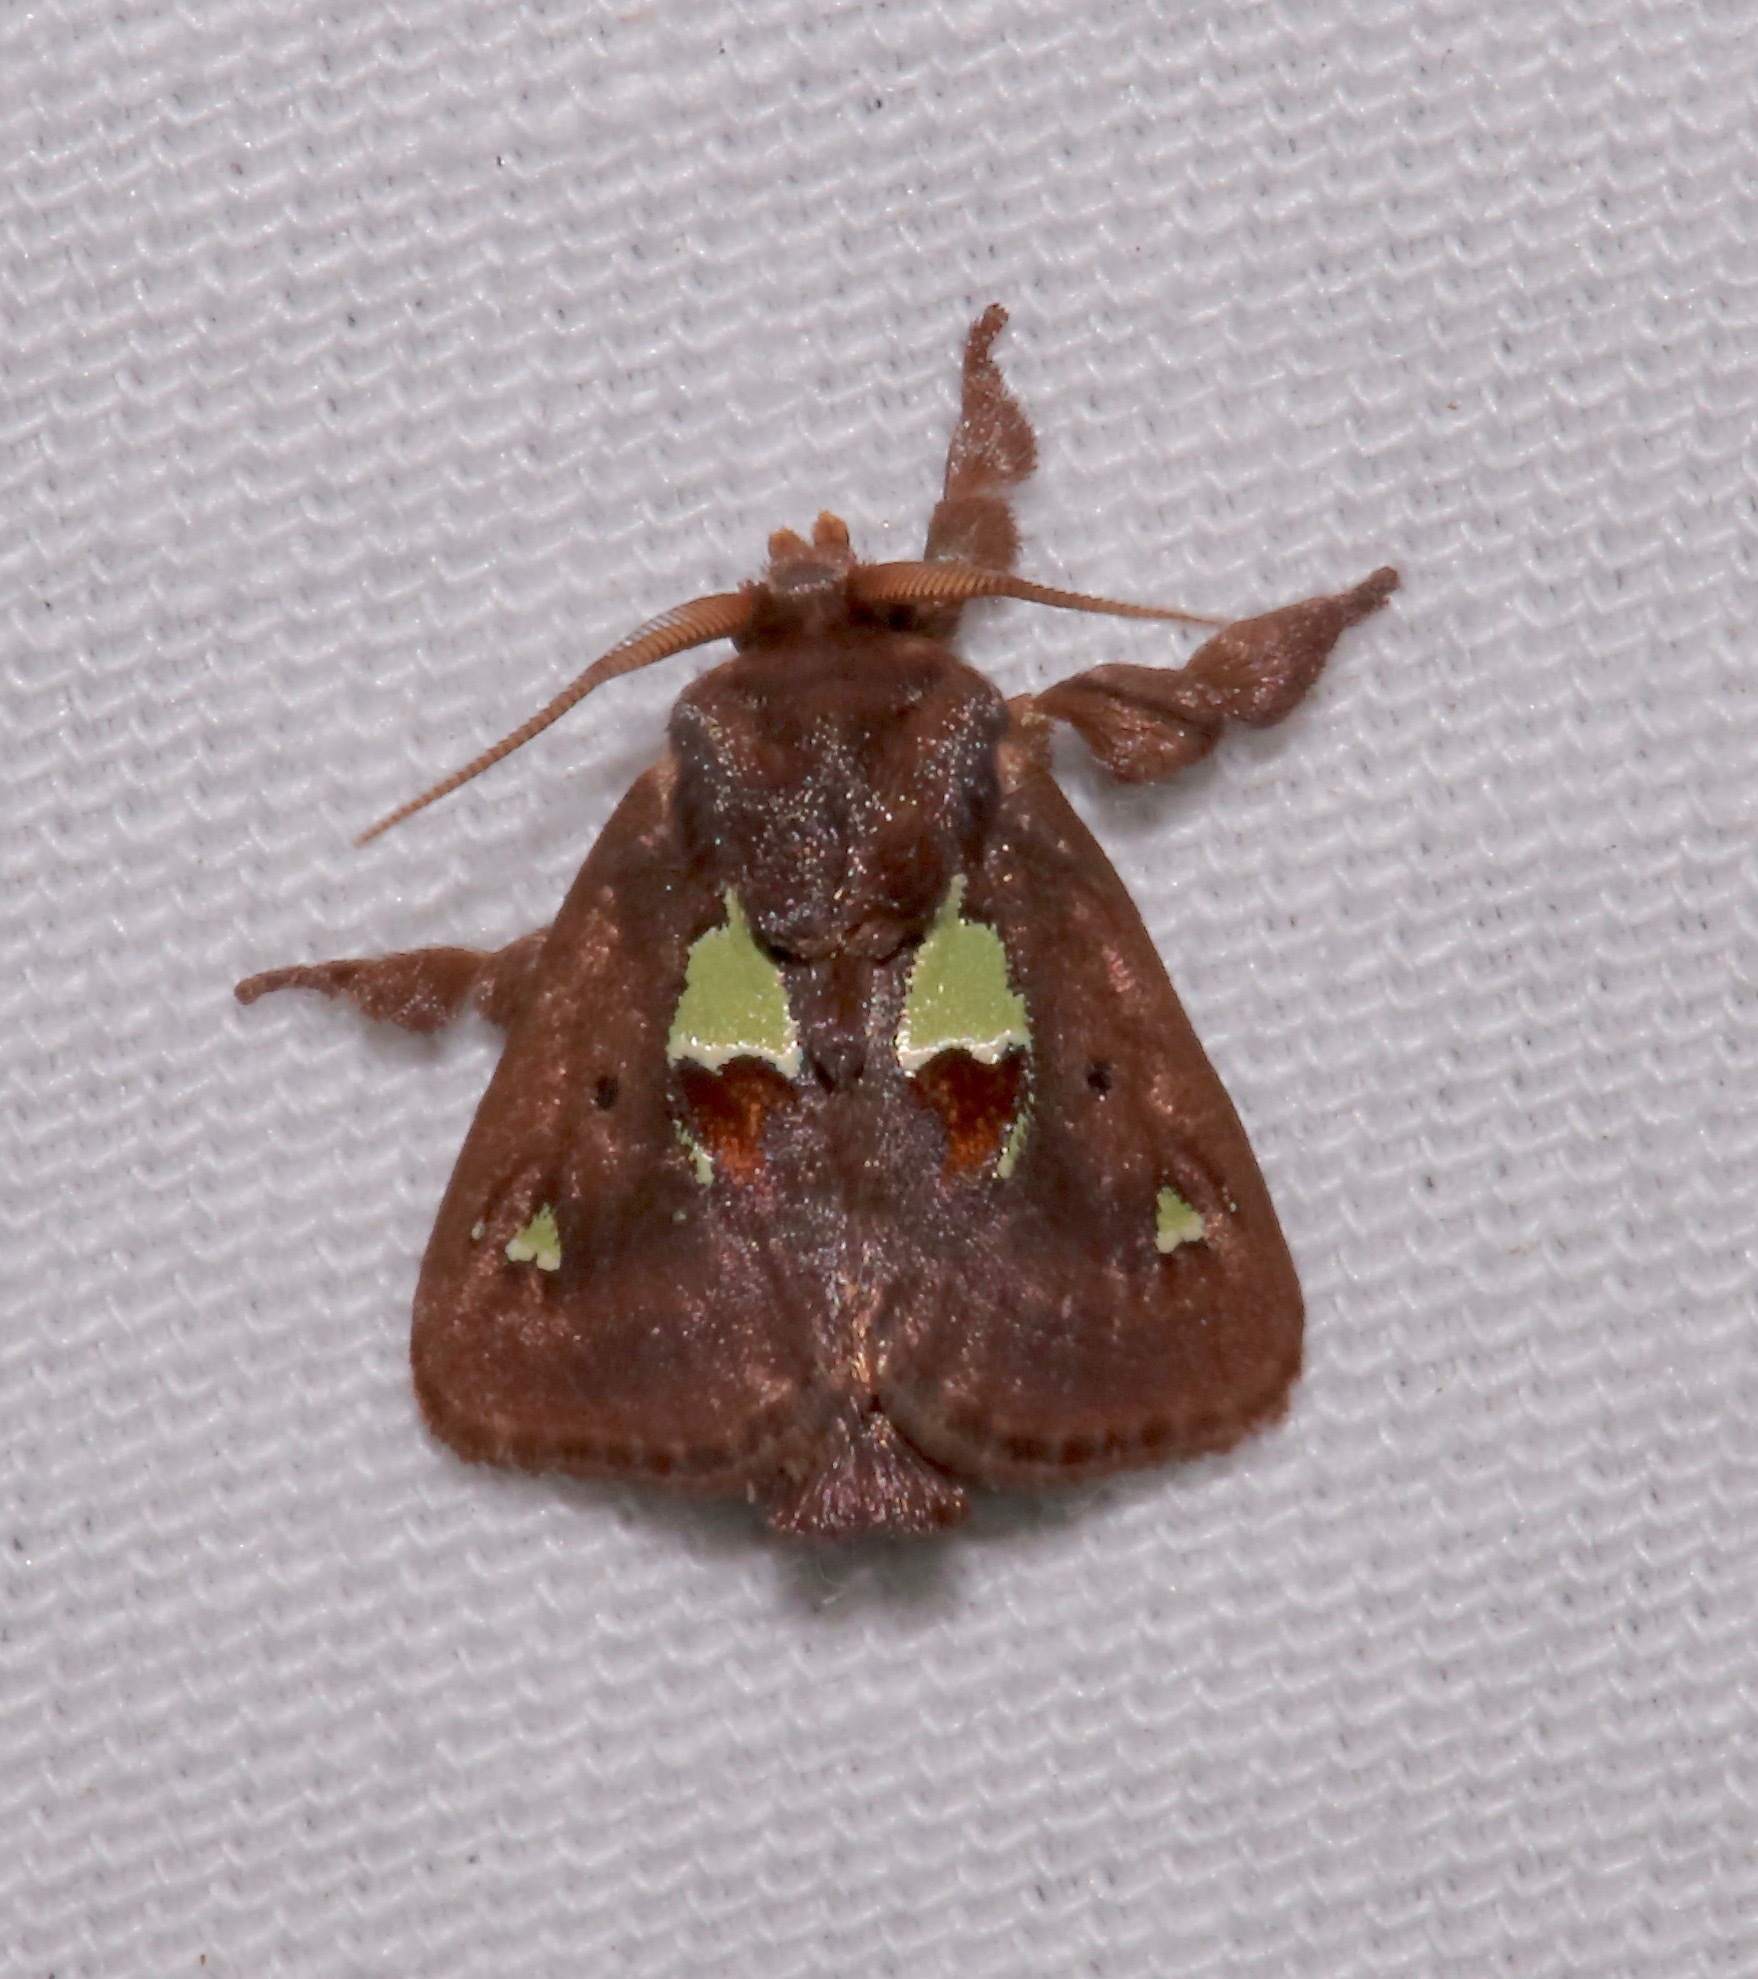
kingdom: Animalia
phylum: Arthropoda
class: Insecta
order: Lepidoptera
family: Limacodidae
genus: Euclea
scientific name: Euclea delphinii
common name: Spiny oak-slug moth
